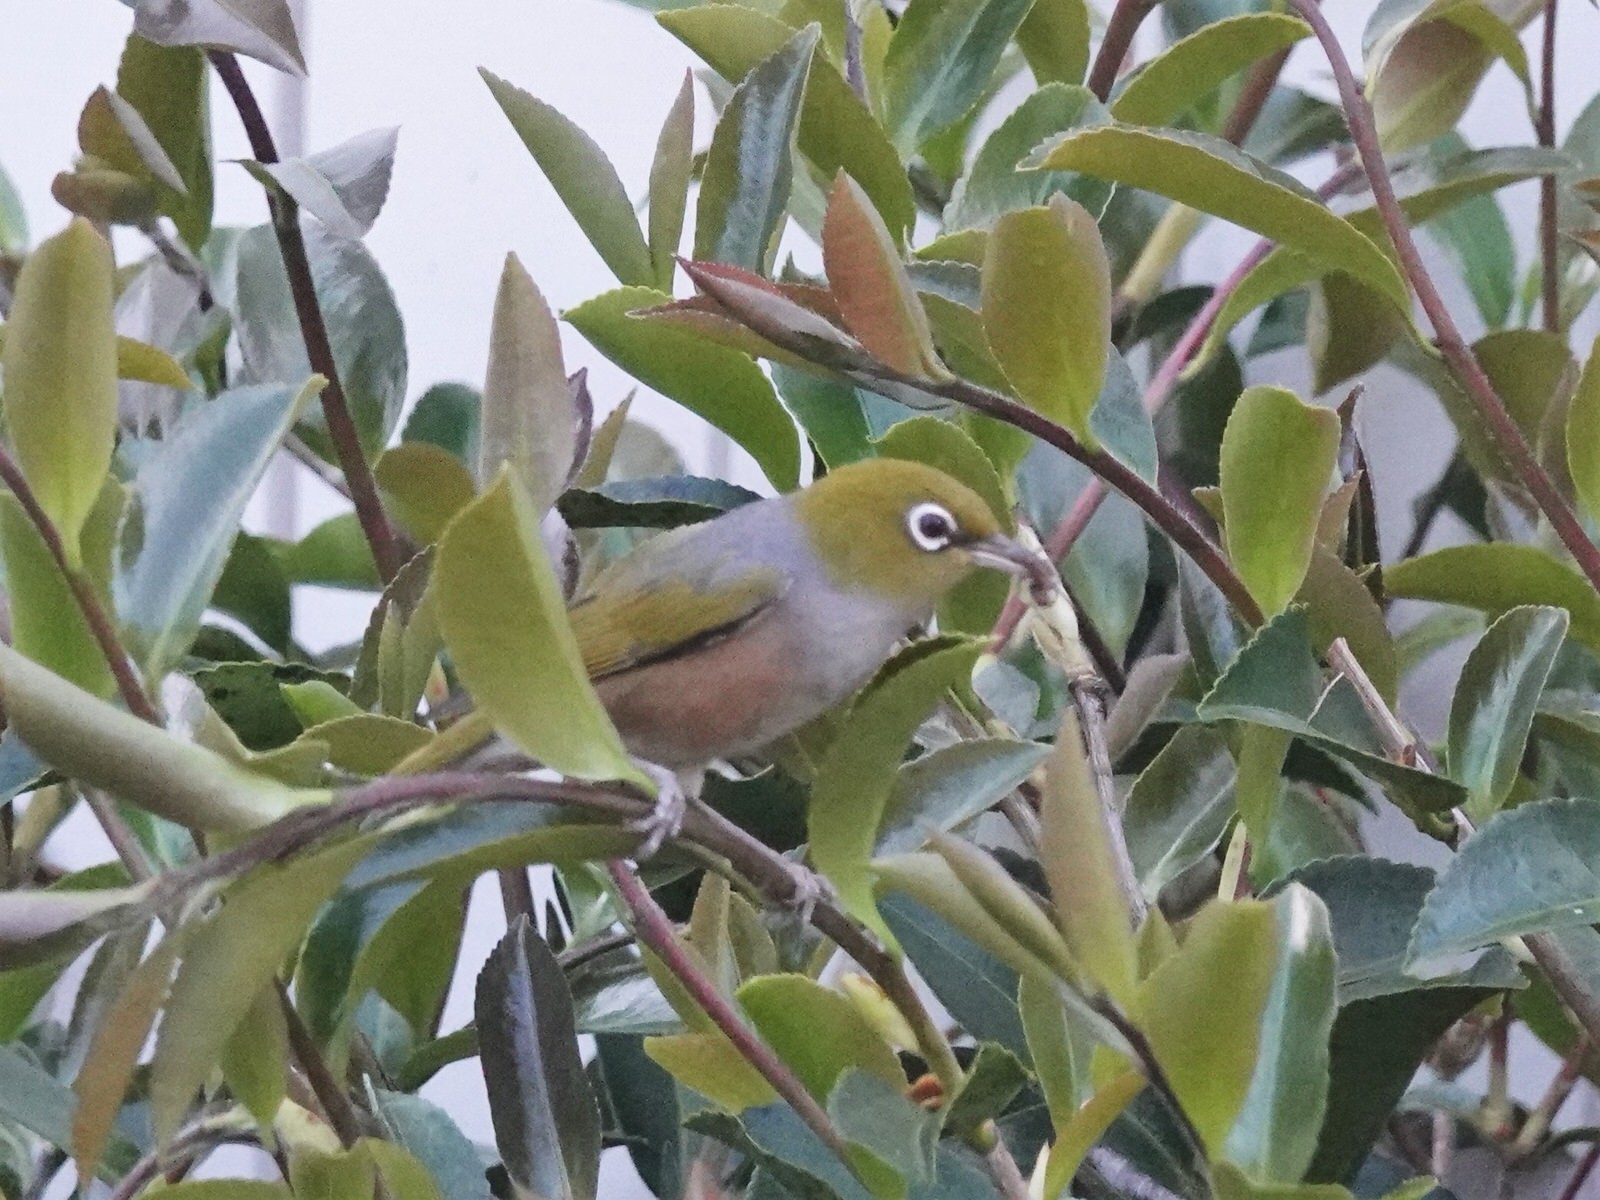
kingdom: Animalia
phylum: Chordata
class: Aves
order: Passeriformes
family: Zosteropidae
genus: Zosterops
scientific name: Zosterops lateralis
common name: Silvereye
